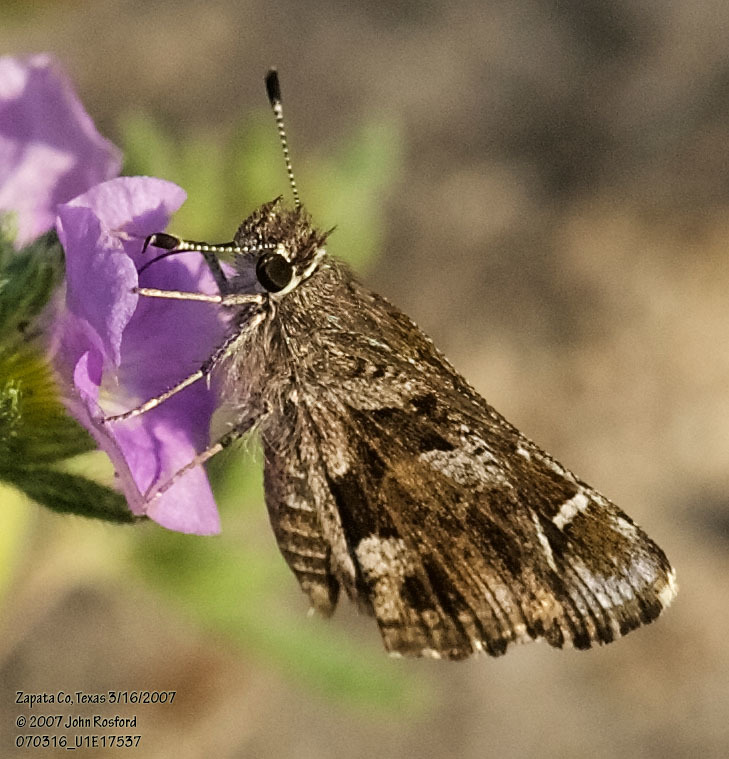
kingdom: Animalia
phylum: Arthropoda
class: Insecta
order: Lepidoptera
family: Hesperiidae
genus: Mastor
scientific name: Mastor nysa
